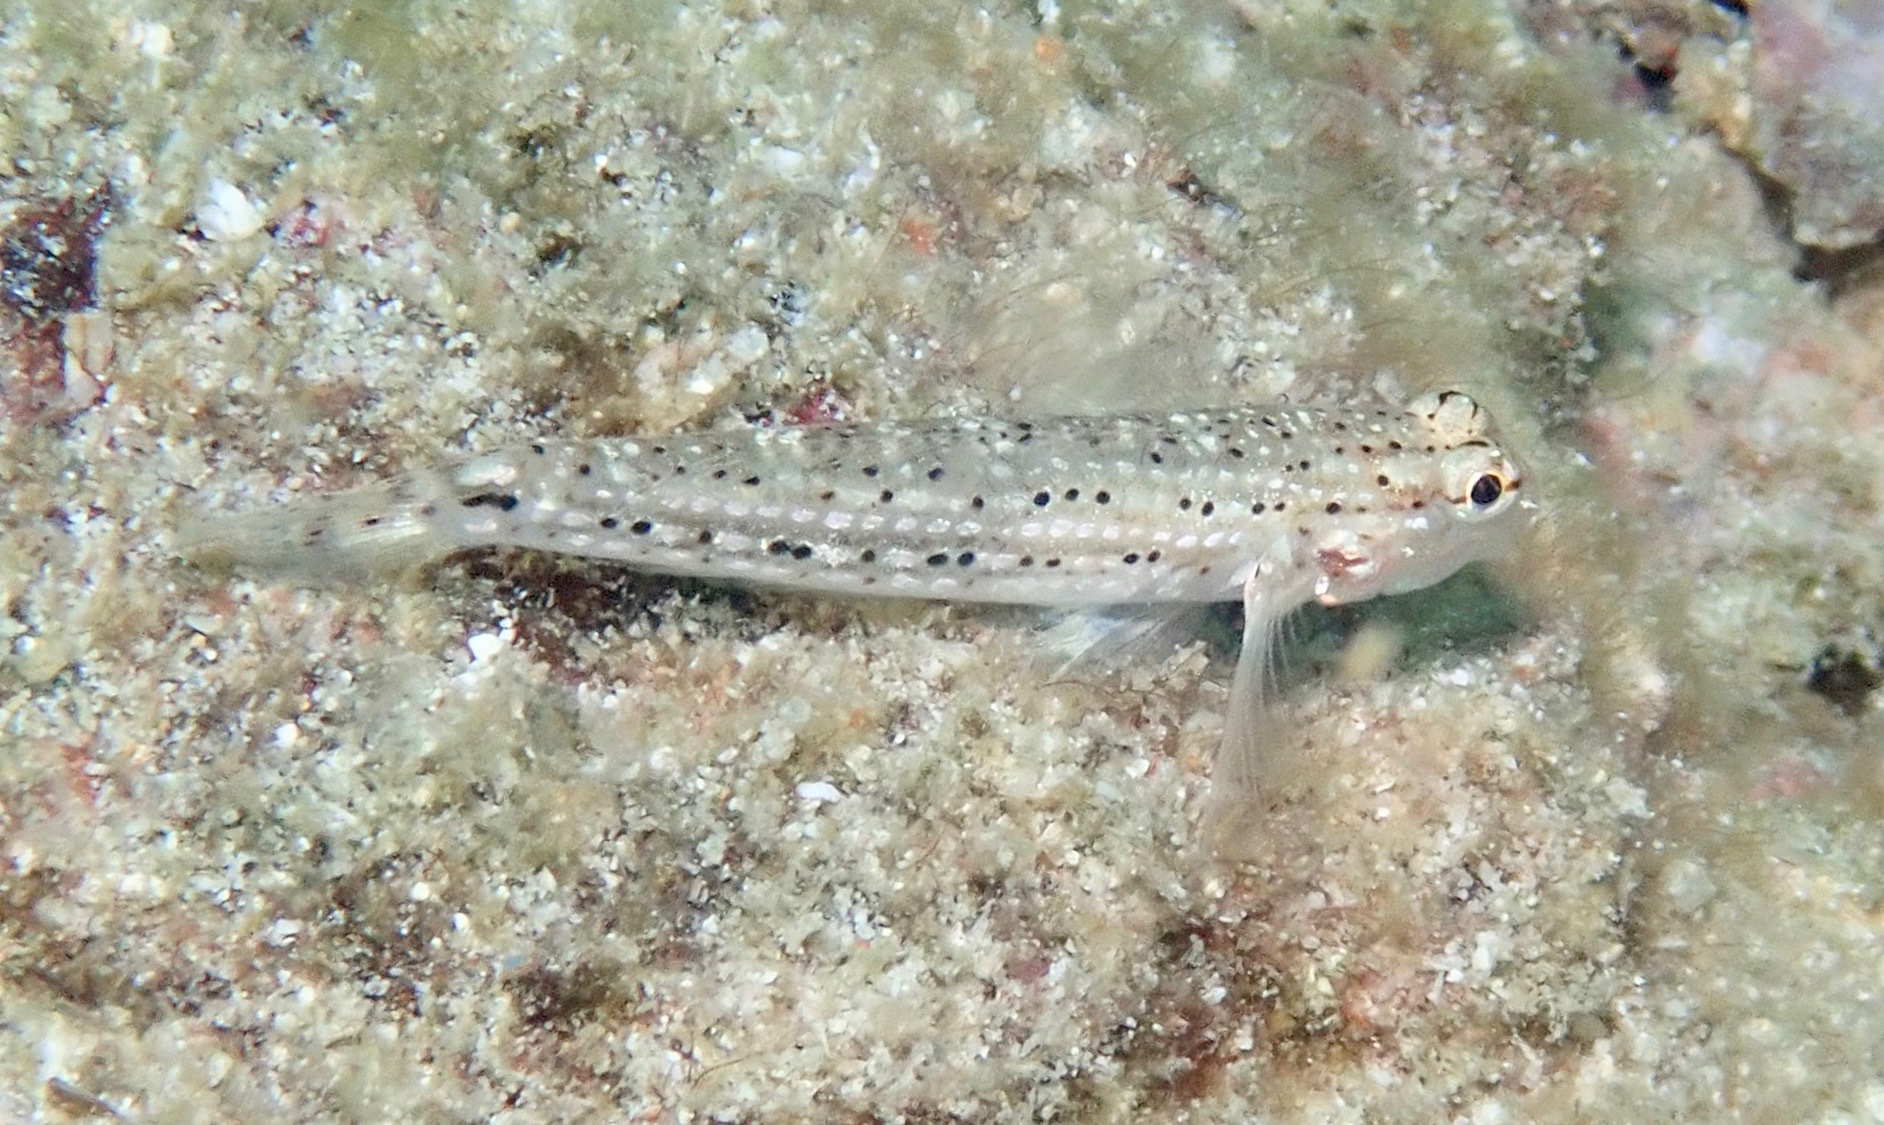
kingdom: Animalia
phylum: Chordata
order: Perciformes
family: Gobiidae
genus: Istigobius
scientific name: Istigobius goldmanni
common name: Goldman's goby
